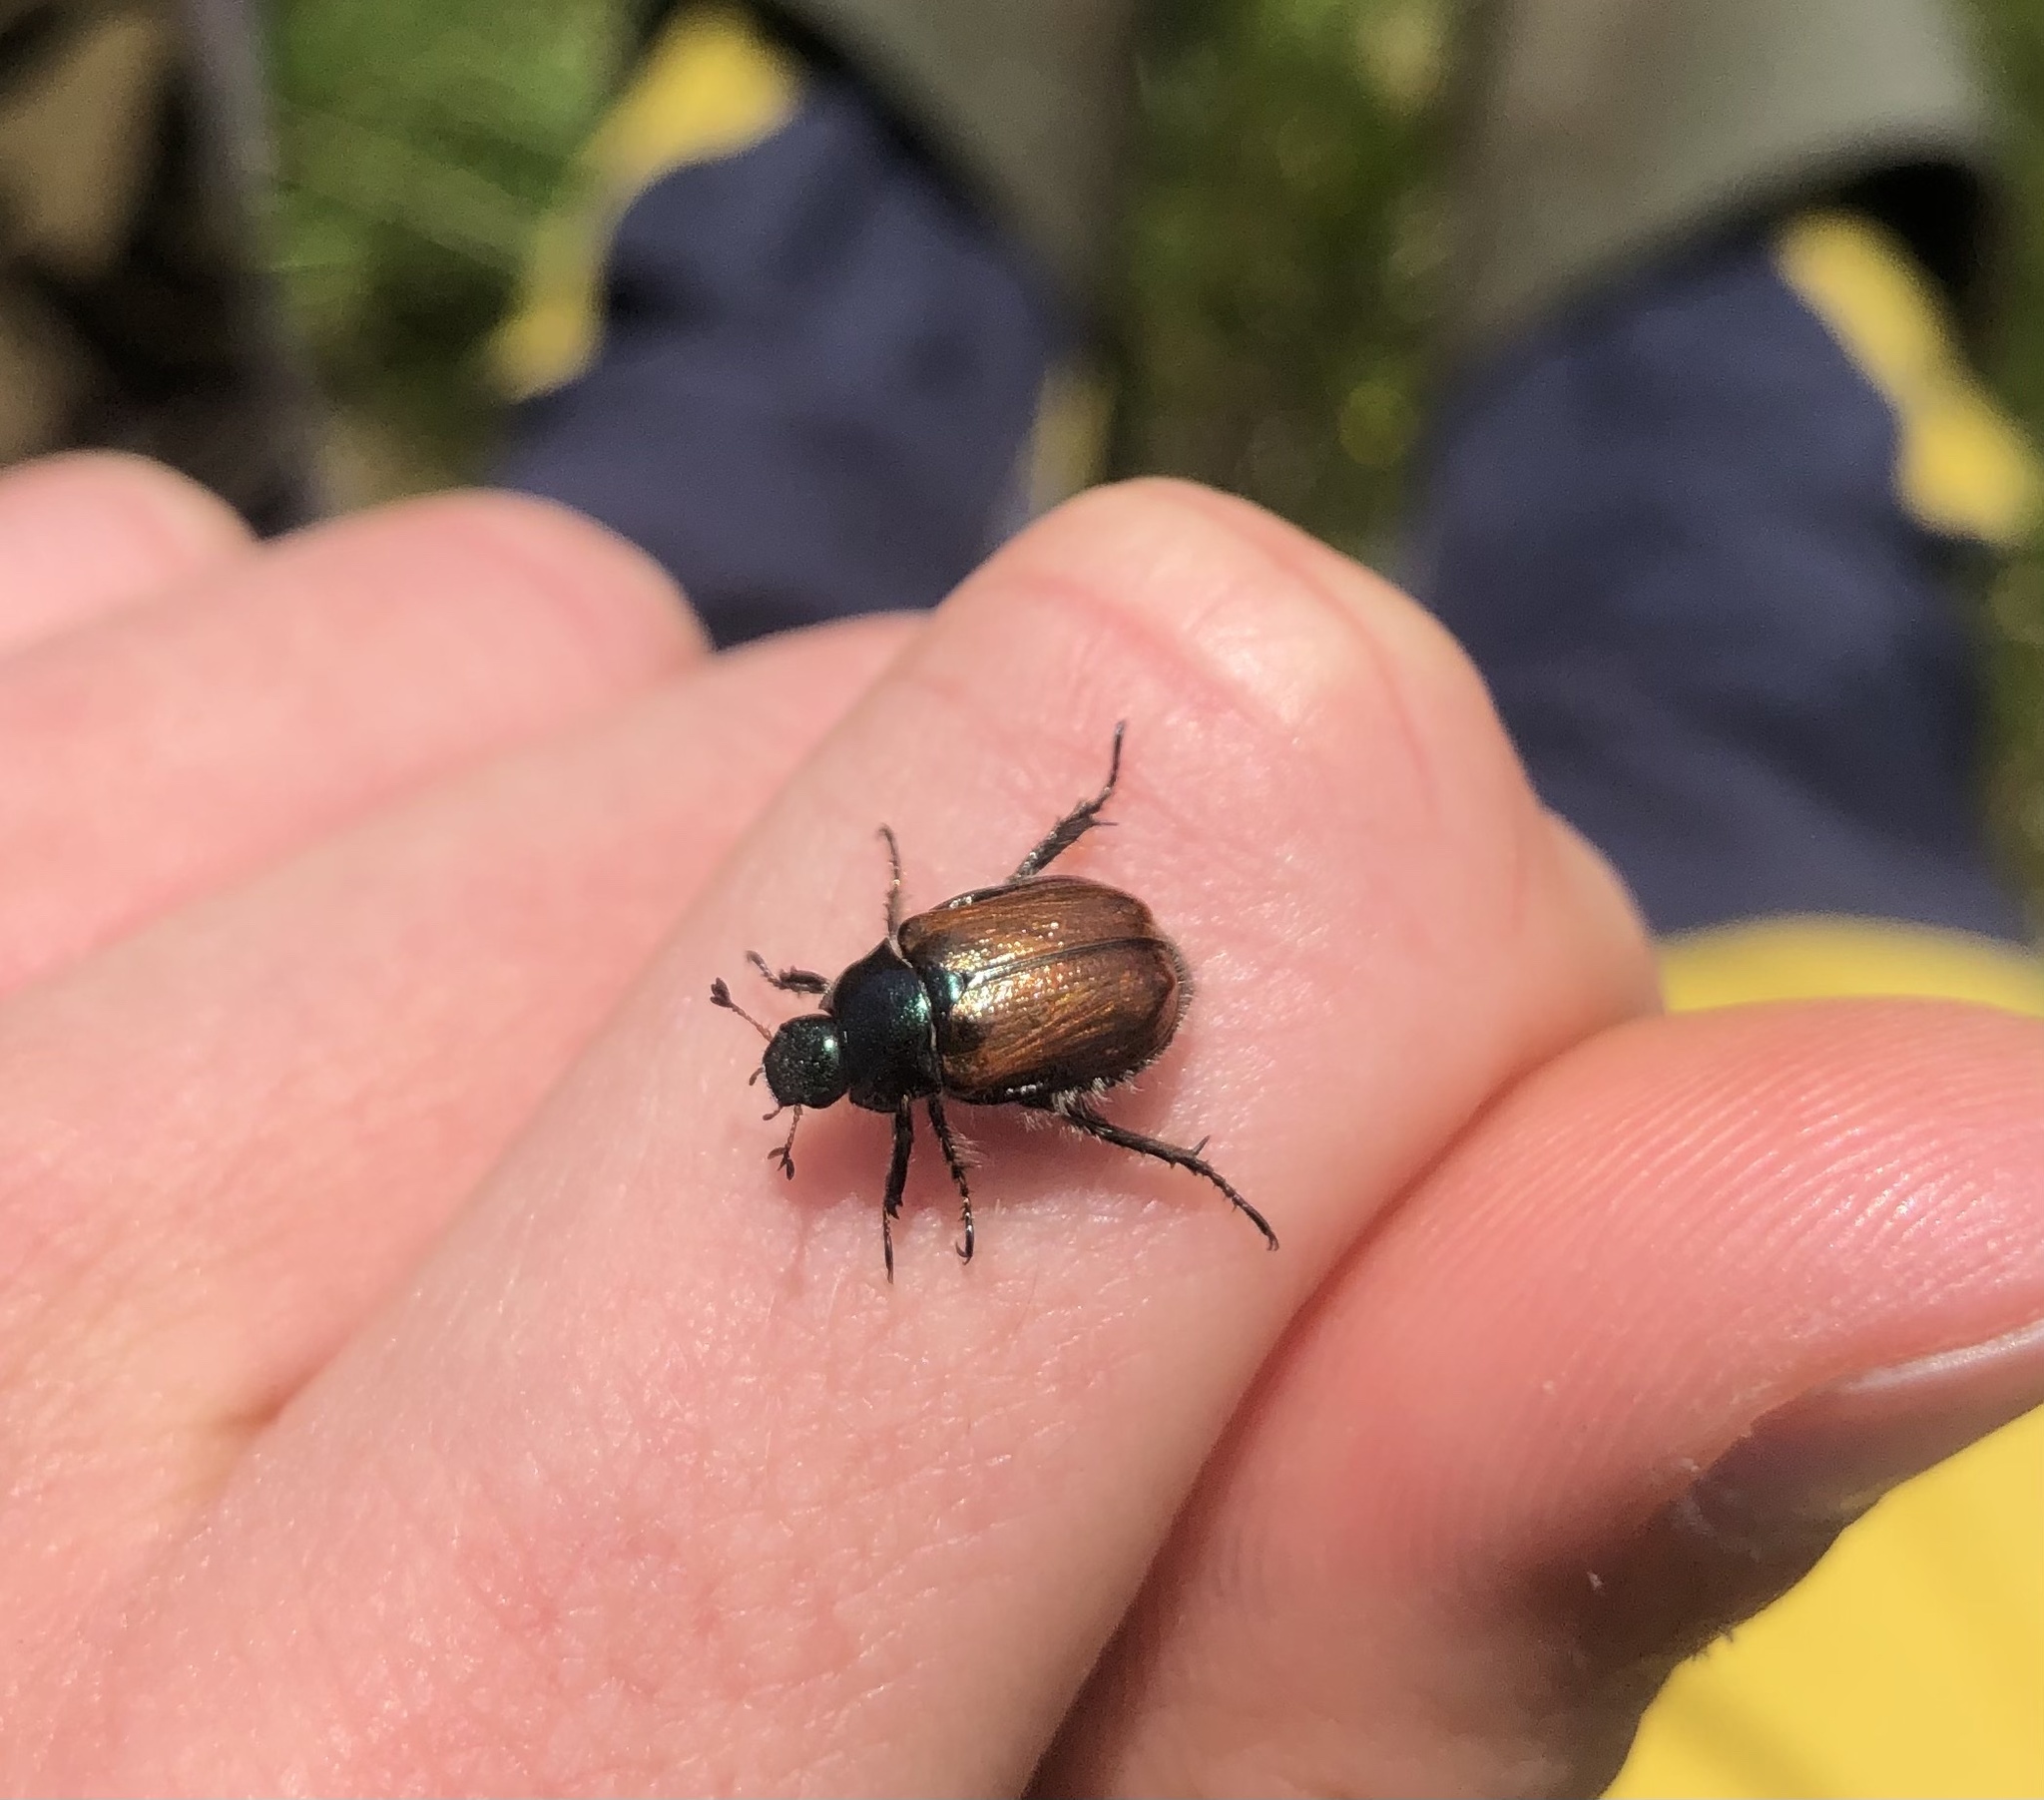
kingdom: Animalia
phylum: Arthropoda
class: Insecta
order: Coleoptera
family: Scarabaeidae
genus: Phyllopertha
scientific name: Phyllopertha horticola
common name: Garden chafer
